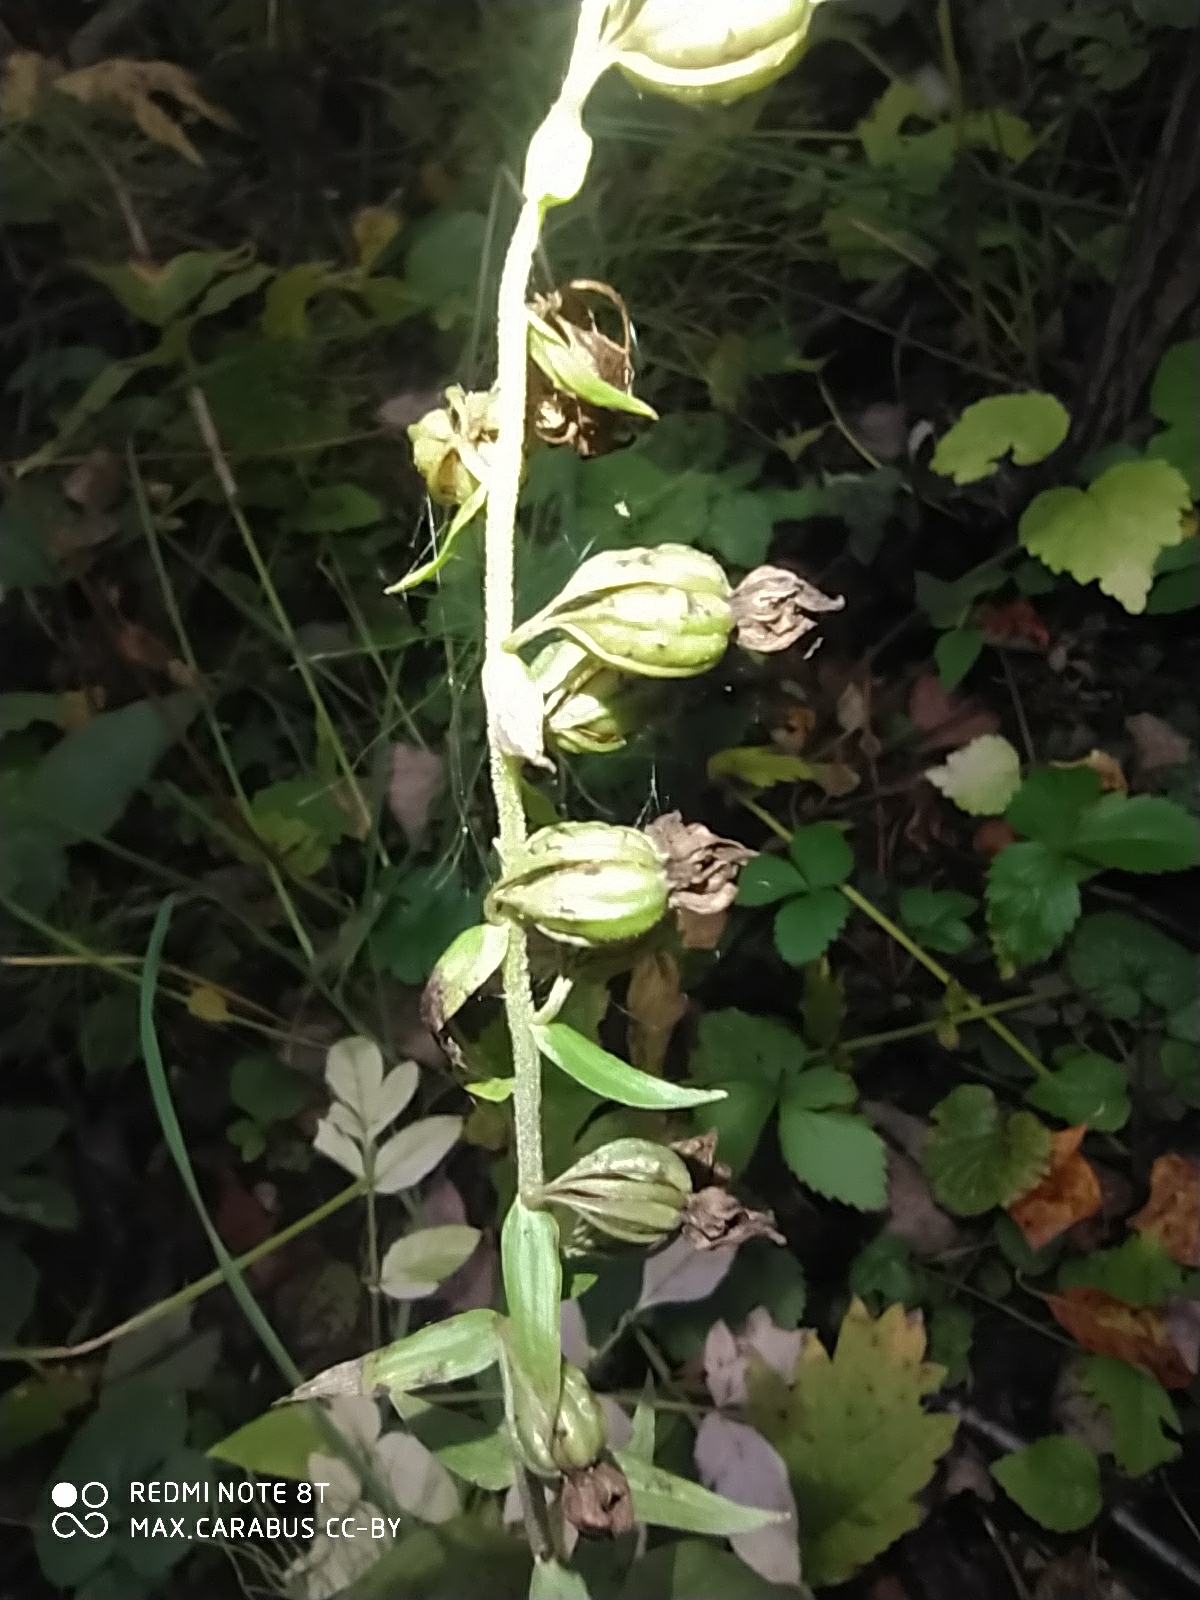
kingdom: Plantae
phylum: Tracheophyta
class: Liliopsida
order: Asparagales
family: Orchidaceae
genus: Epipactis
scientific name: Epipactis helleborine
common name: Broad-leaved helleborine
